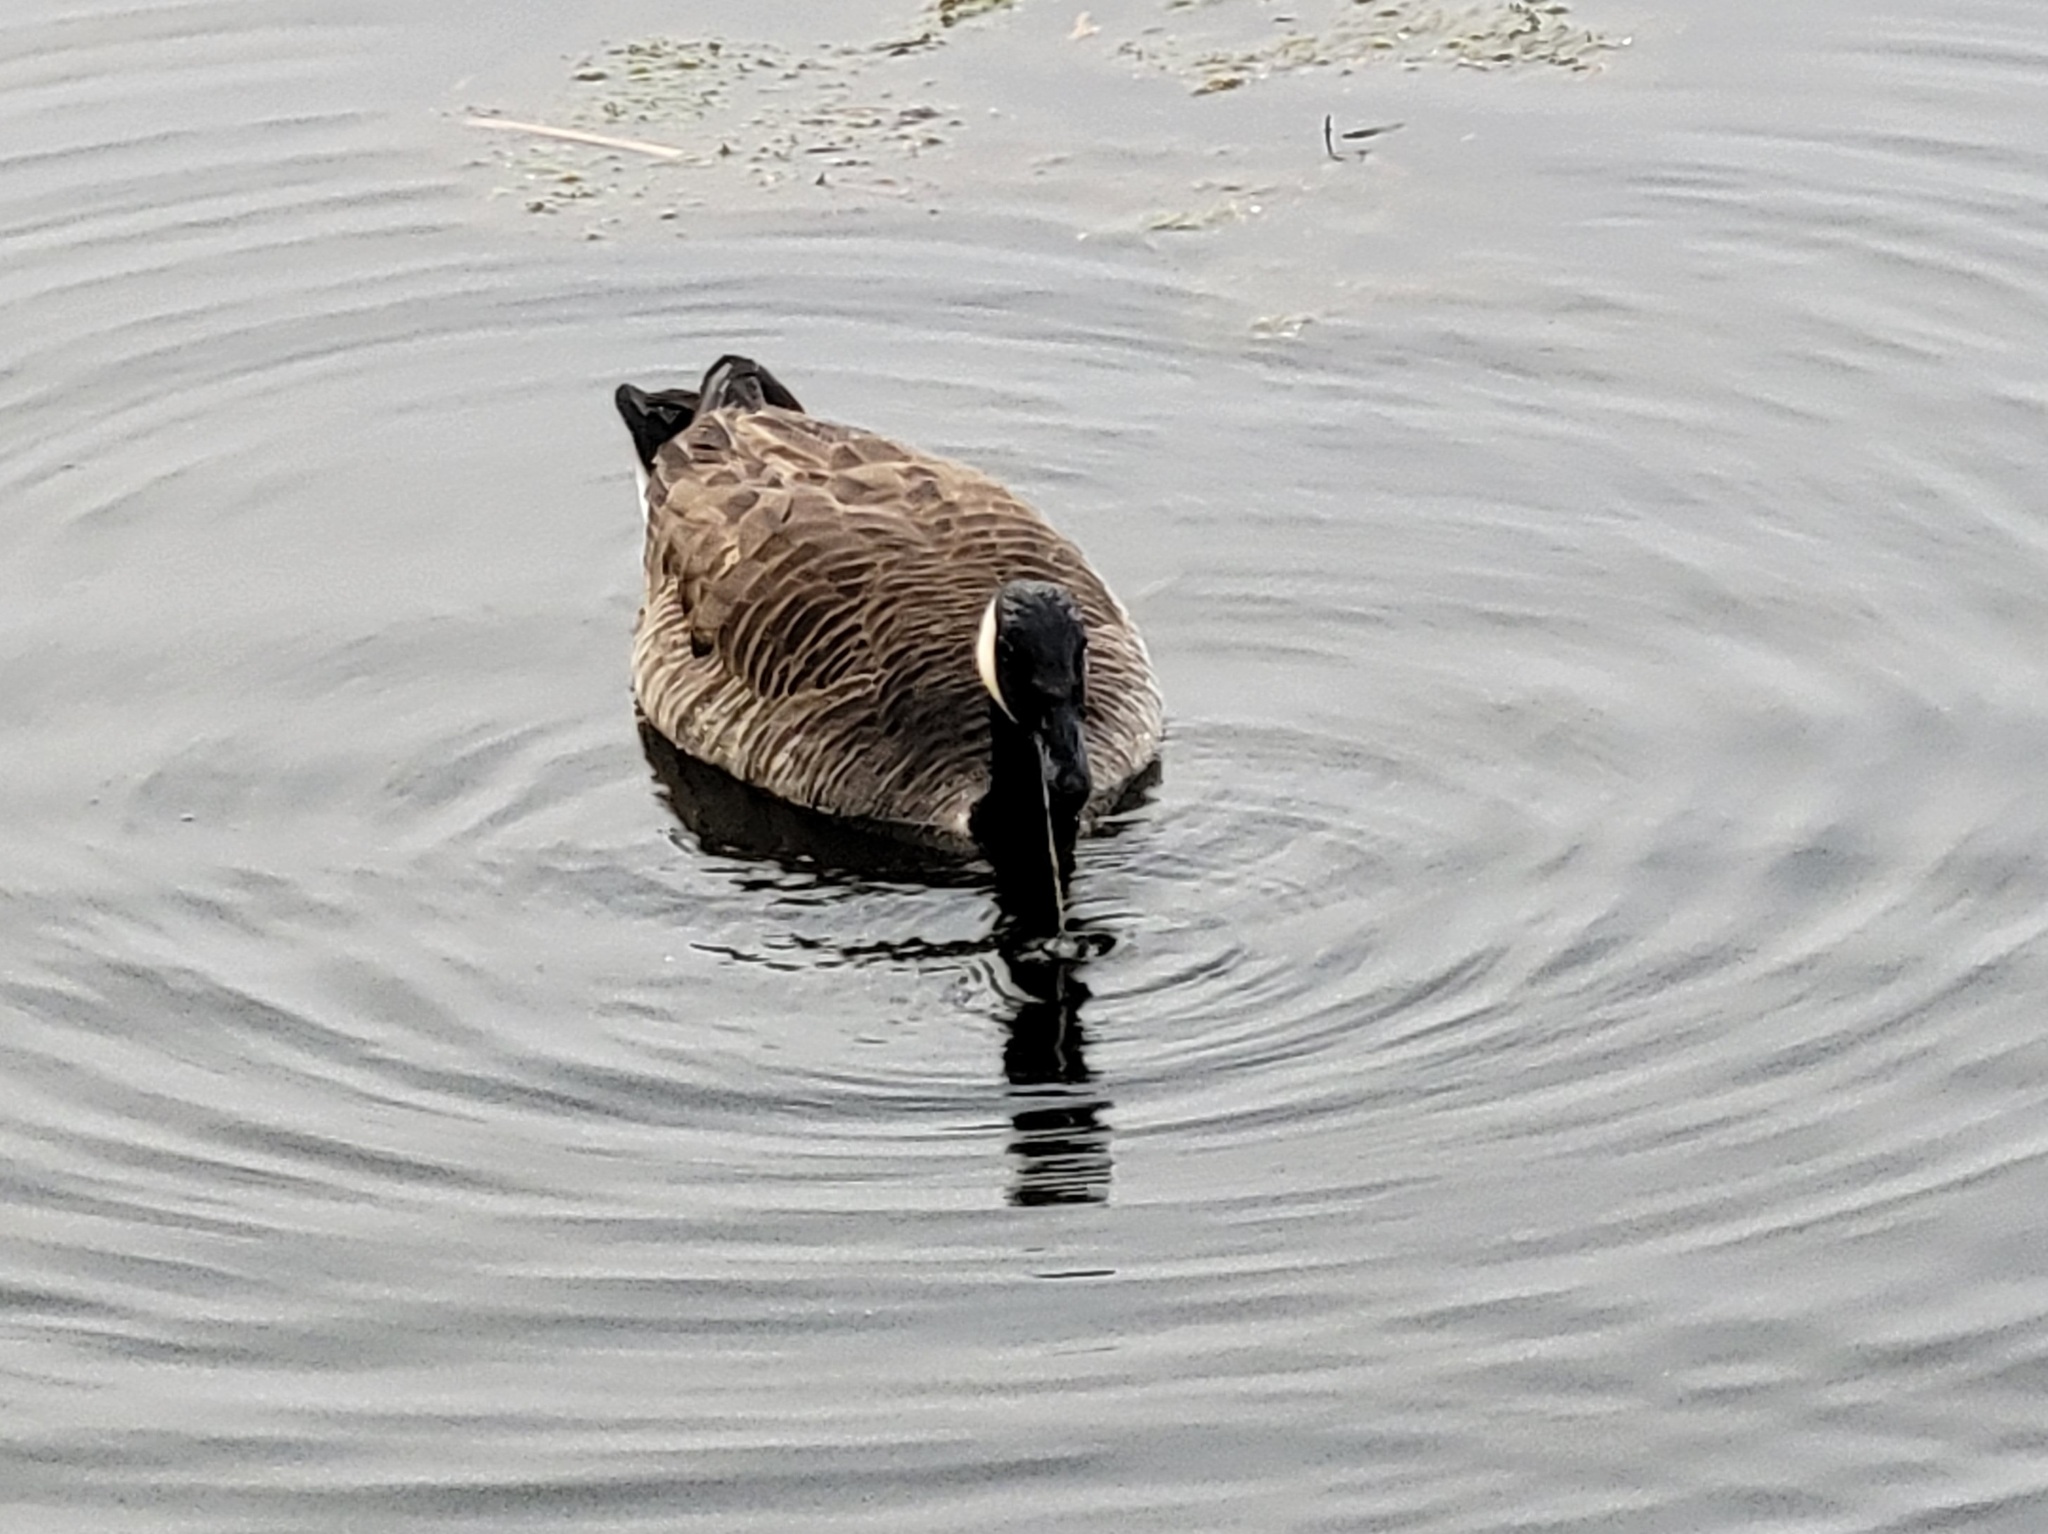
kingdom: Animalia
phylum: Chordata
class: Aves
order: Anseriformes
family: Anatidae
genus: Branta
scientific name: Branta canadensis
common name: Canada goose
